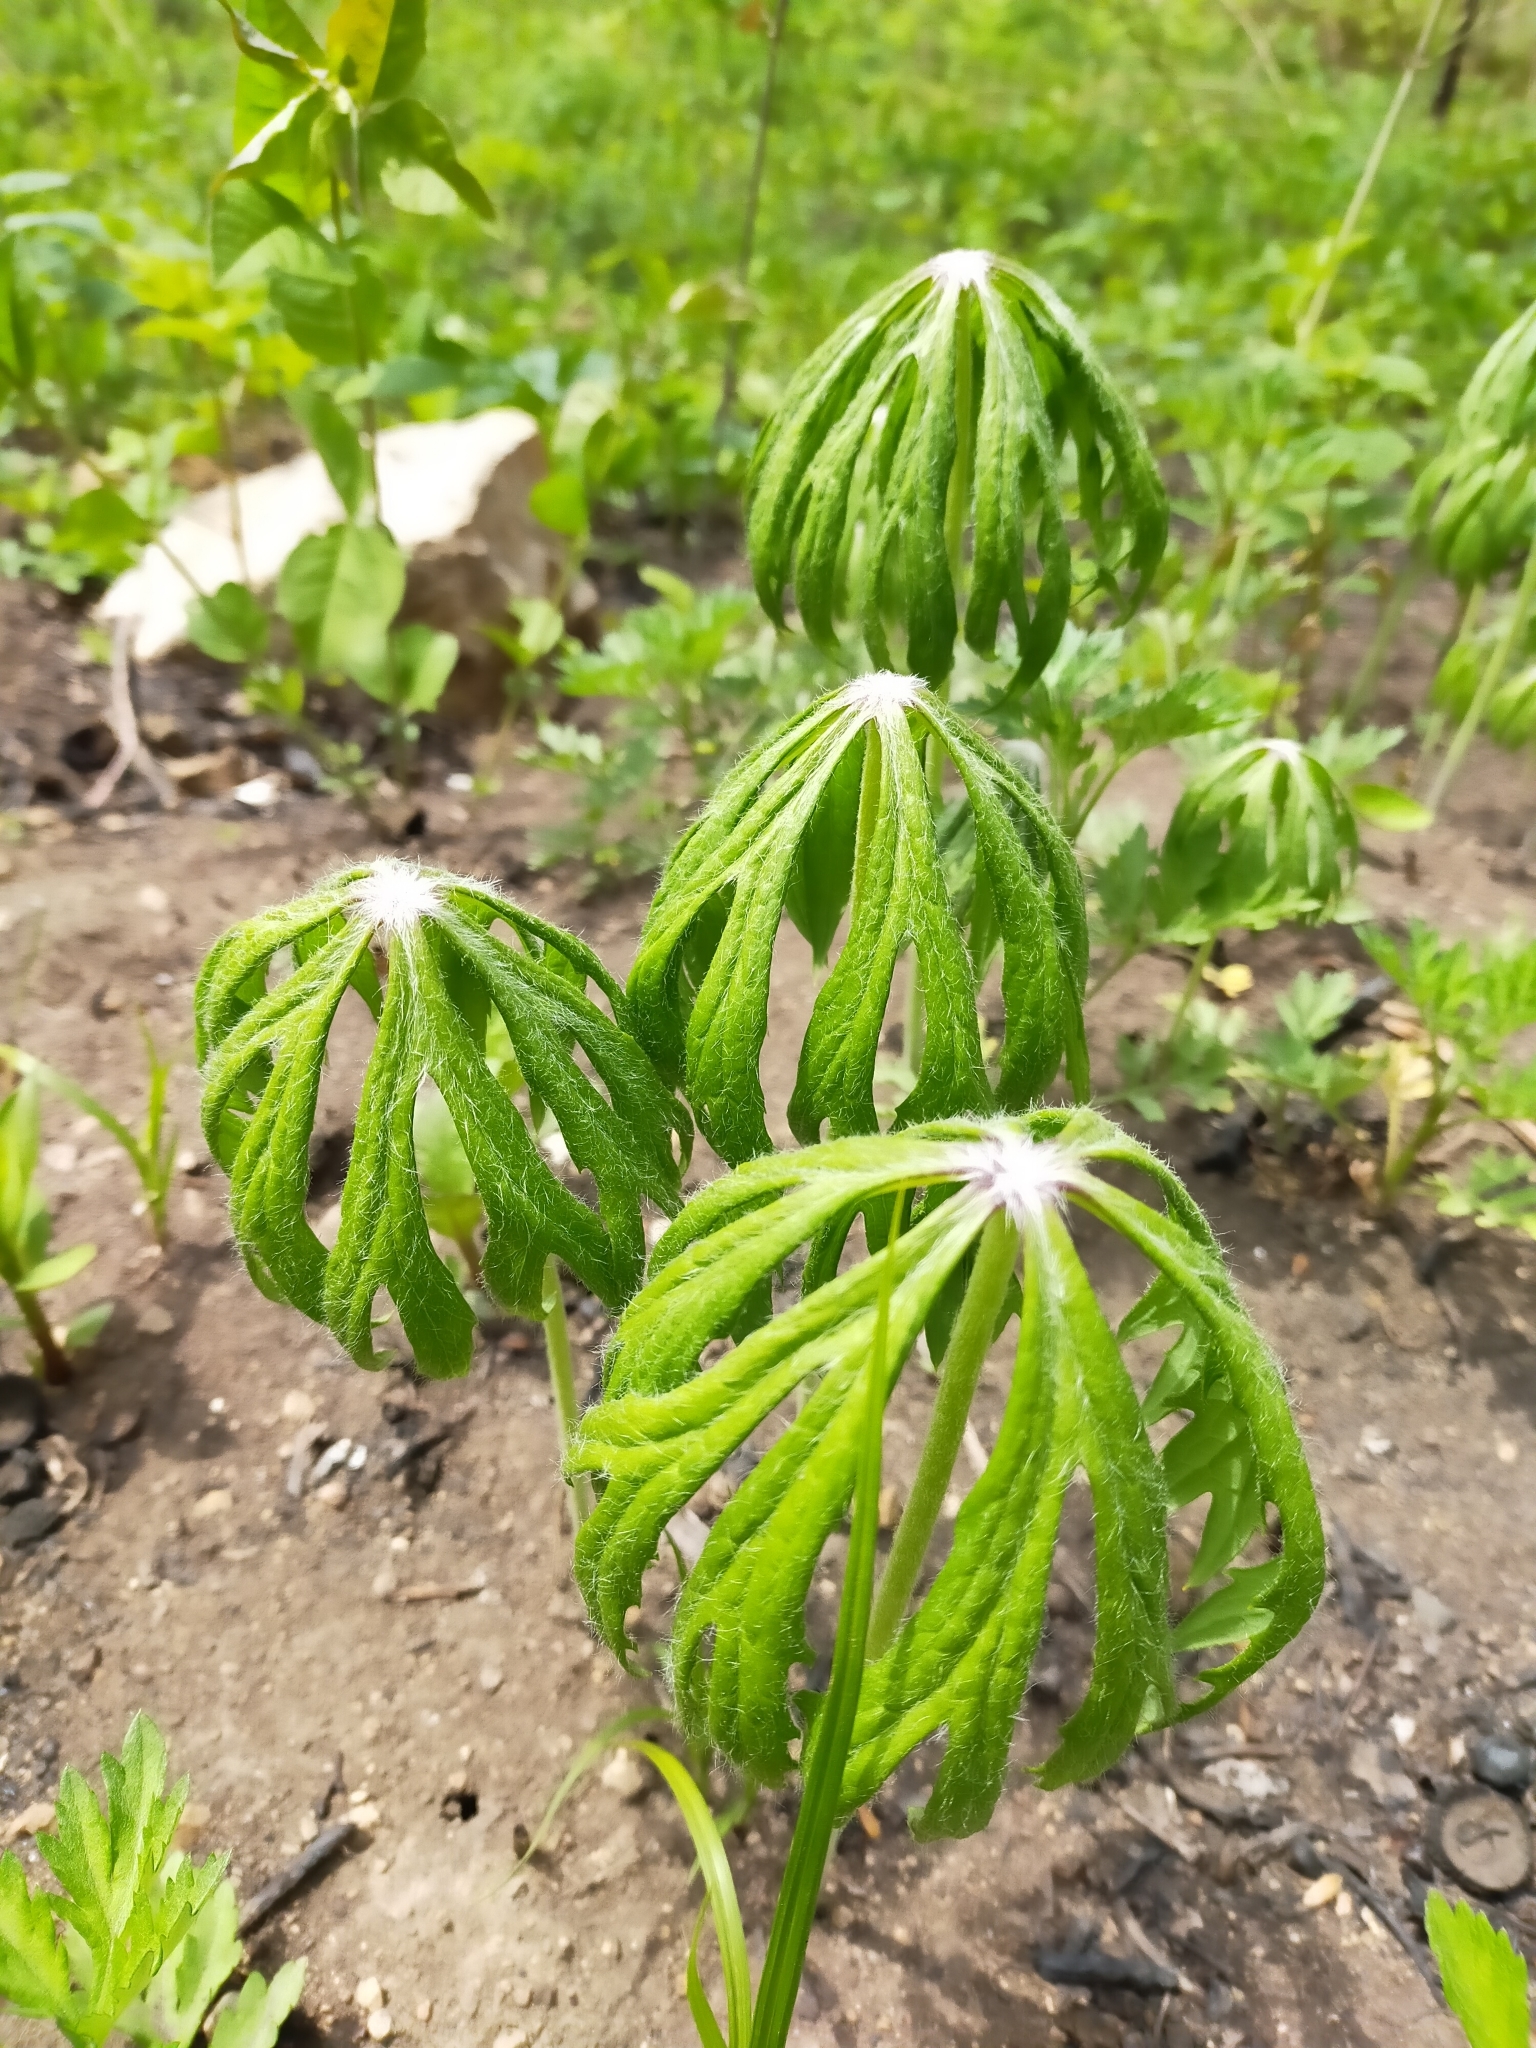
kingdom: Plantae
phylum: Tracheophyta
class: Magnoliopsida
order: Asterales
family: Asteraceae
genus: Syneilesis
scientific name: Syneilesis aconitifolia
